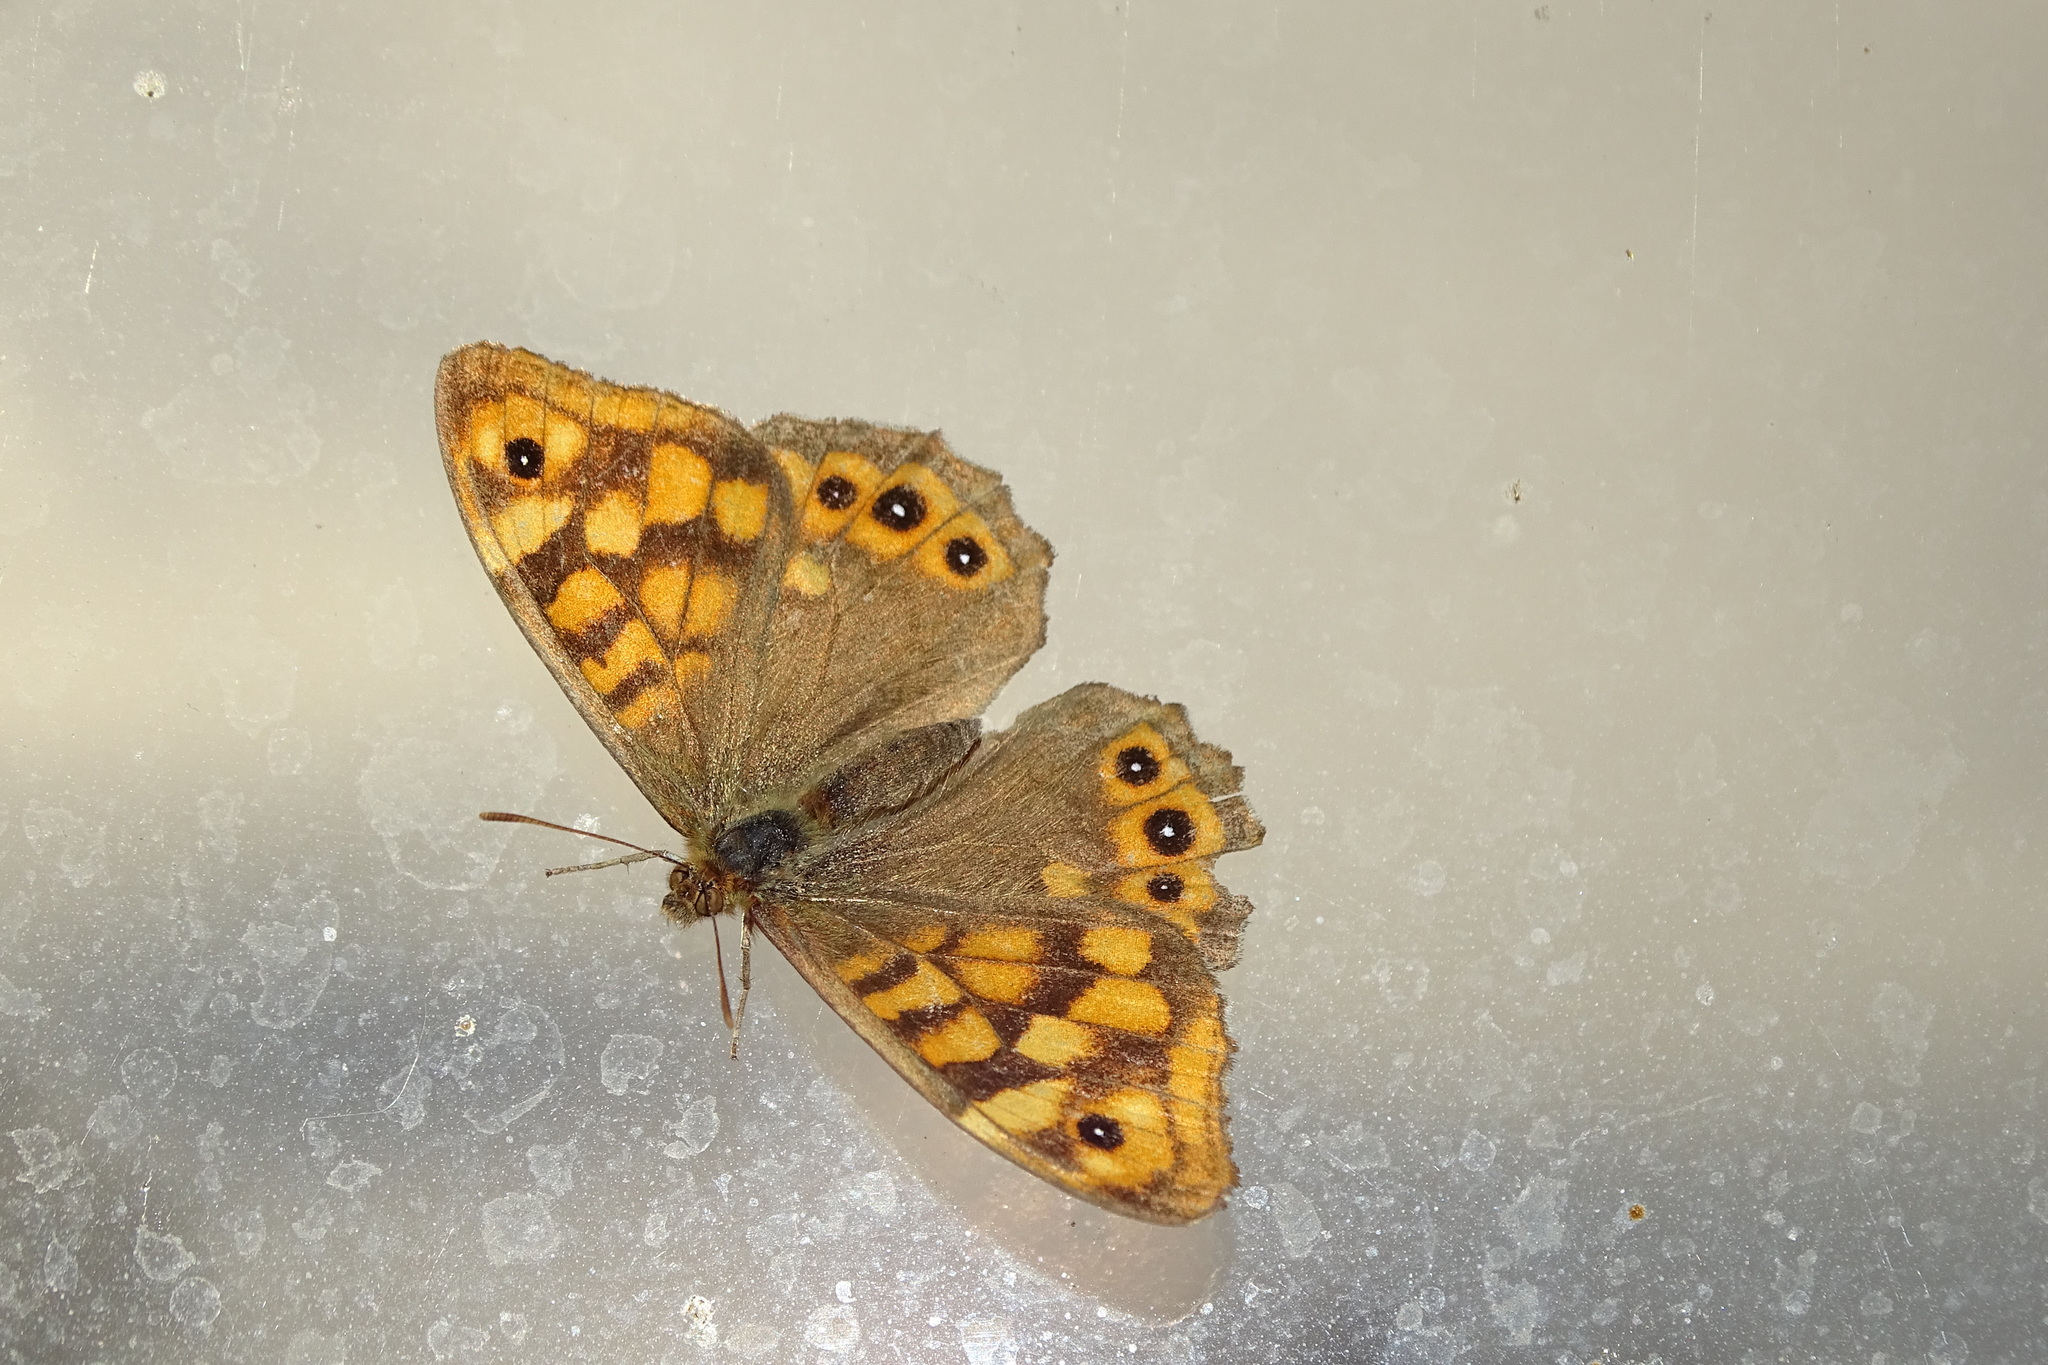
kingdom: Animalia
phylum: Arthropoda
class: Insecta
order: Lepidoptera
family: Nymphalidae
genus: Pararge
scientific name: Pararge aegeria
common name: Speckled wood
